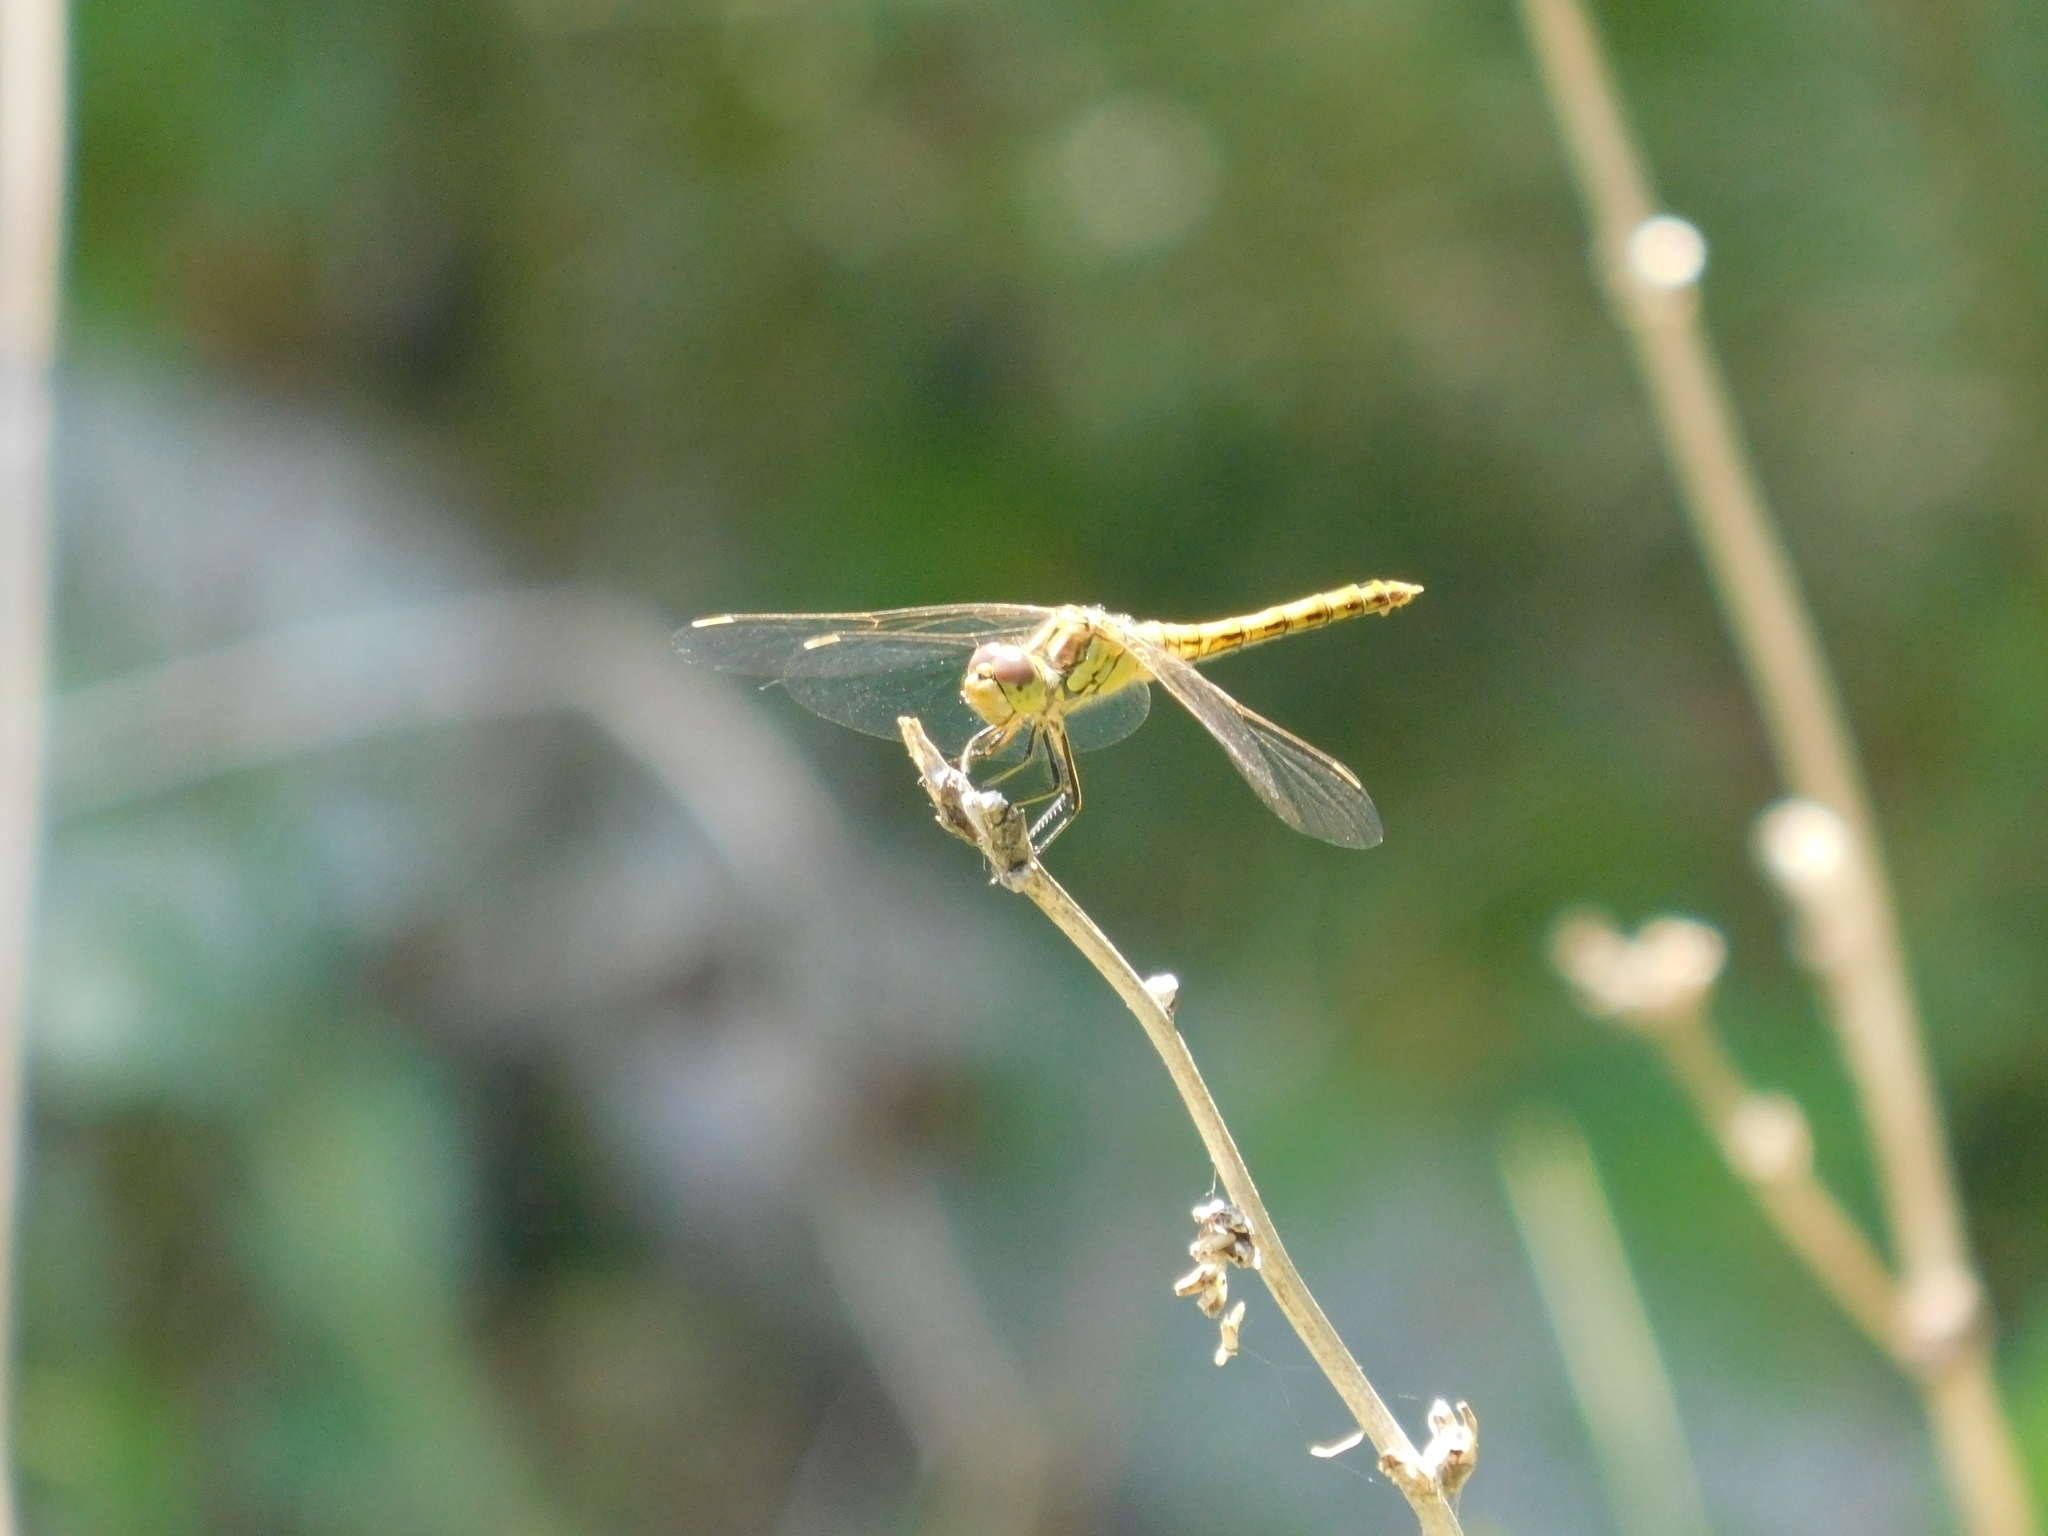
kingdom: Animalia
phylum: Arthropoda
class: Insecta
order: Odonata
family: Libellulidae
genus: Sympetrum
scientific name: Sympetrum vulgatum
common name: Vagrant darter
